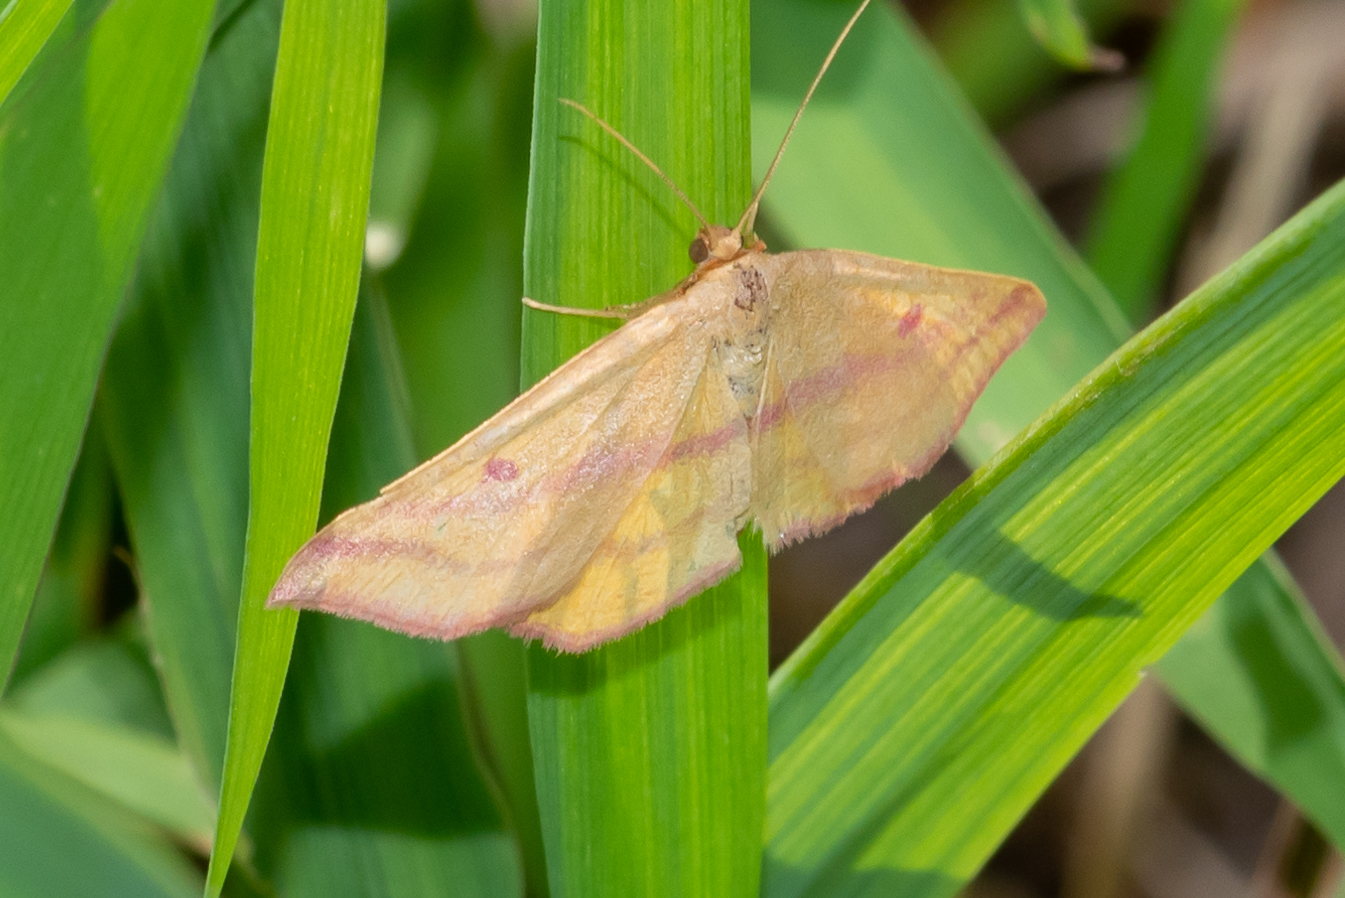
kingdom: Animalia
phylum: Arthropoda
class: Insecta
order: Lepidoptera
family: Geometridae
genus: Haematopis
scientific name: Haematopis grataria
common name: Chickweed geometer
